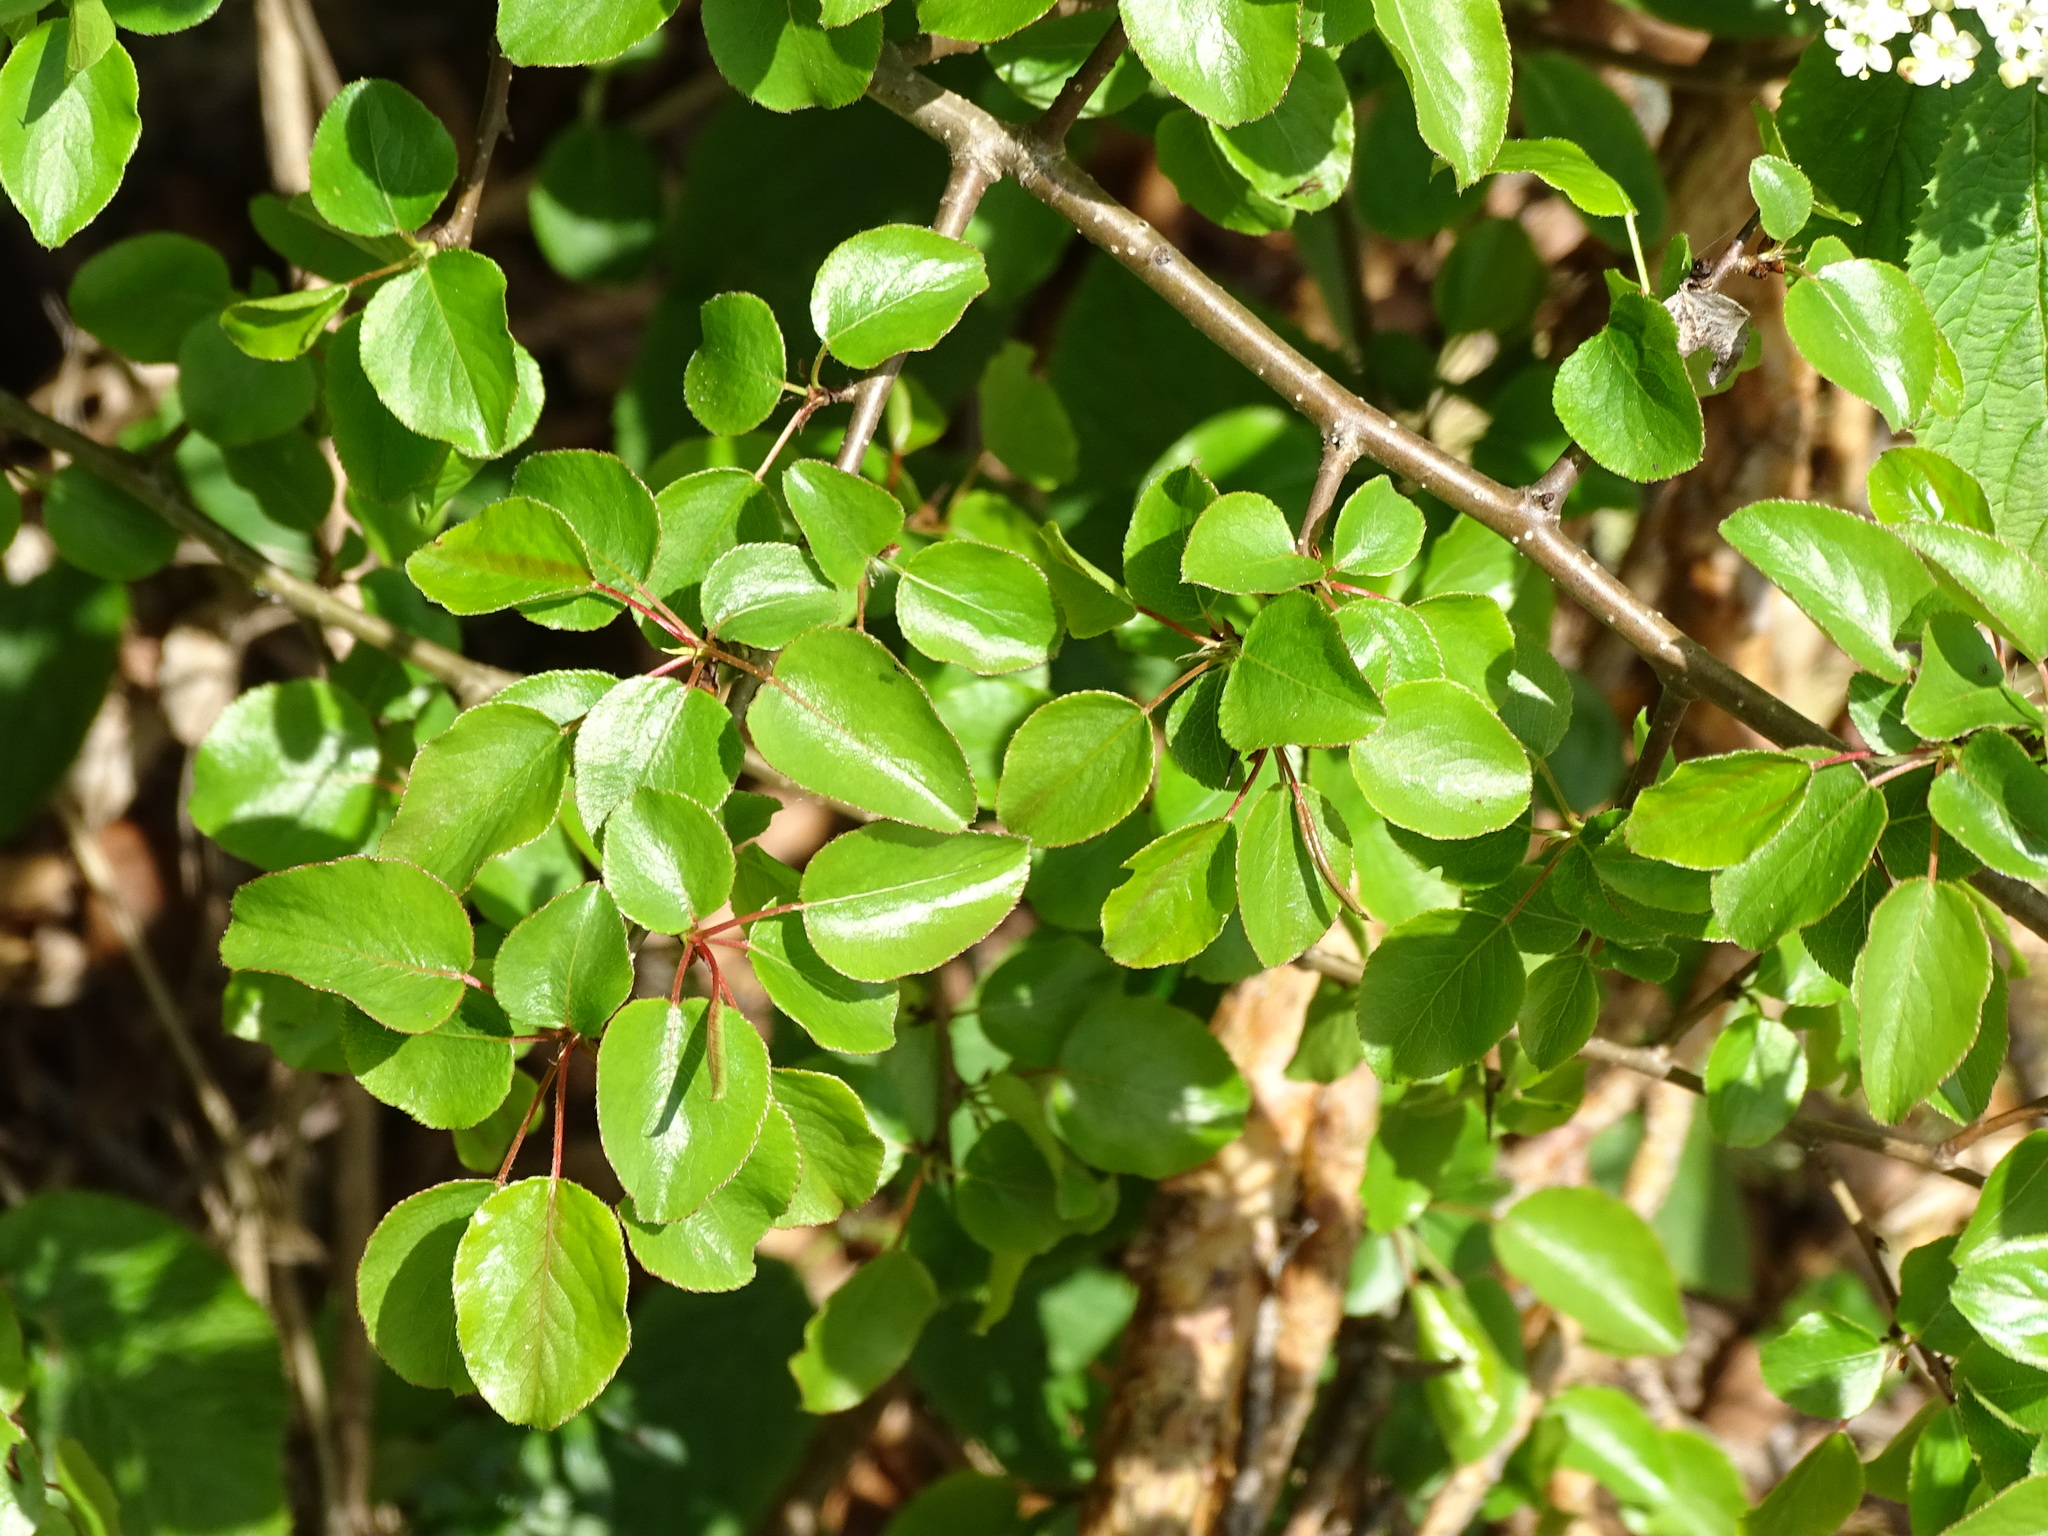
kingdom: Plantae
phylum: Tracheophyta
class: Magnoliopsida
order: Rosales
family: Rosaceae
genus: Pyrus
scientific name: Pyrus
